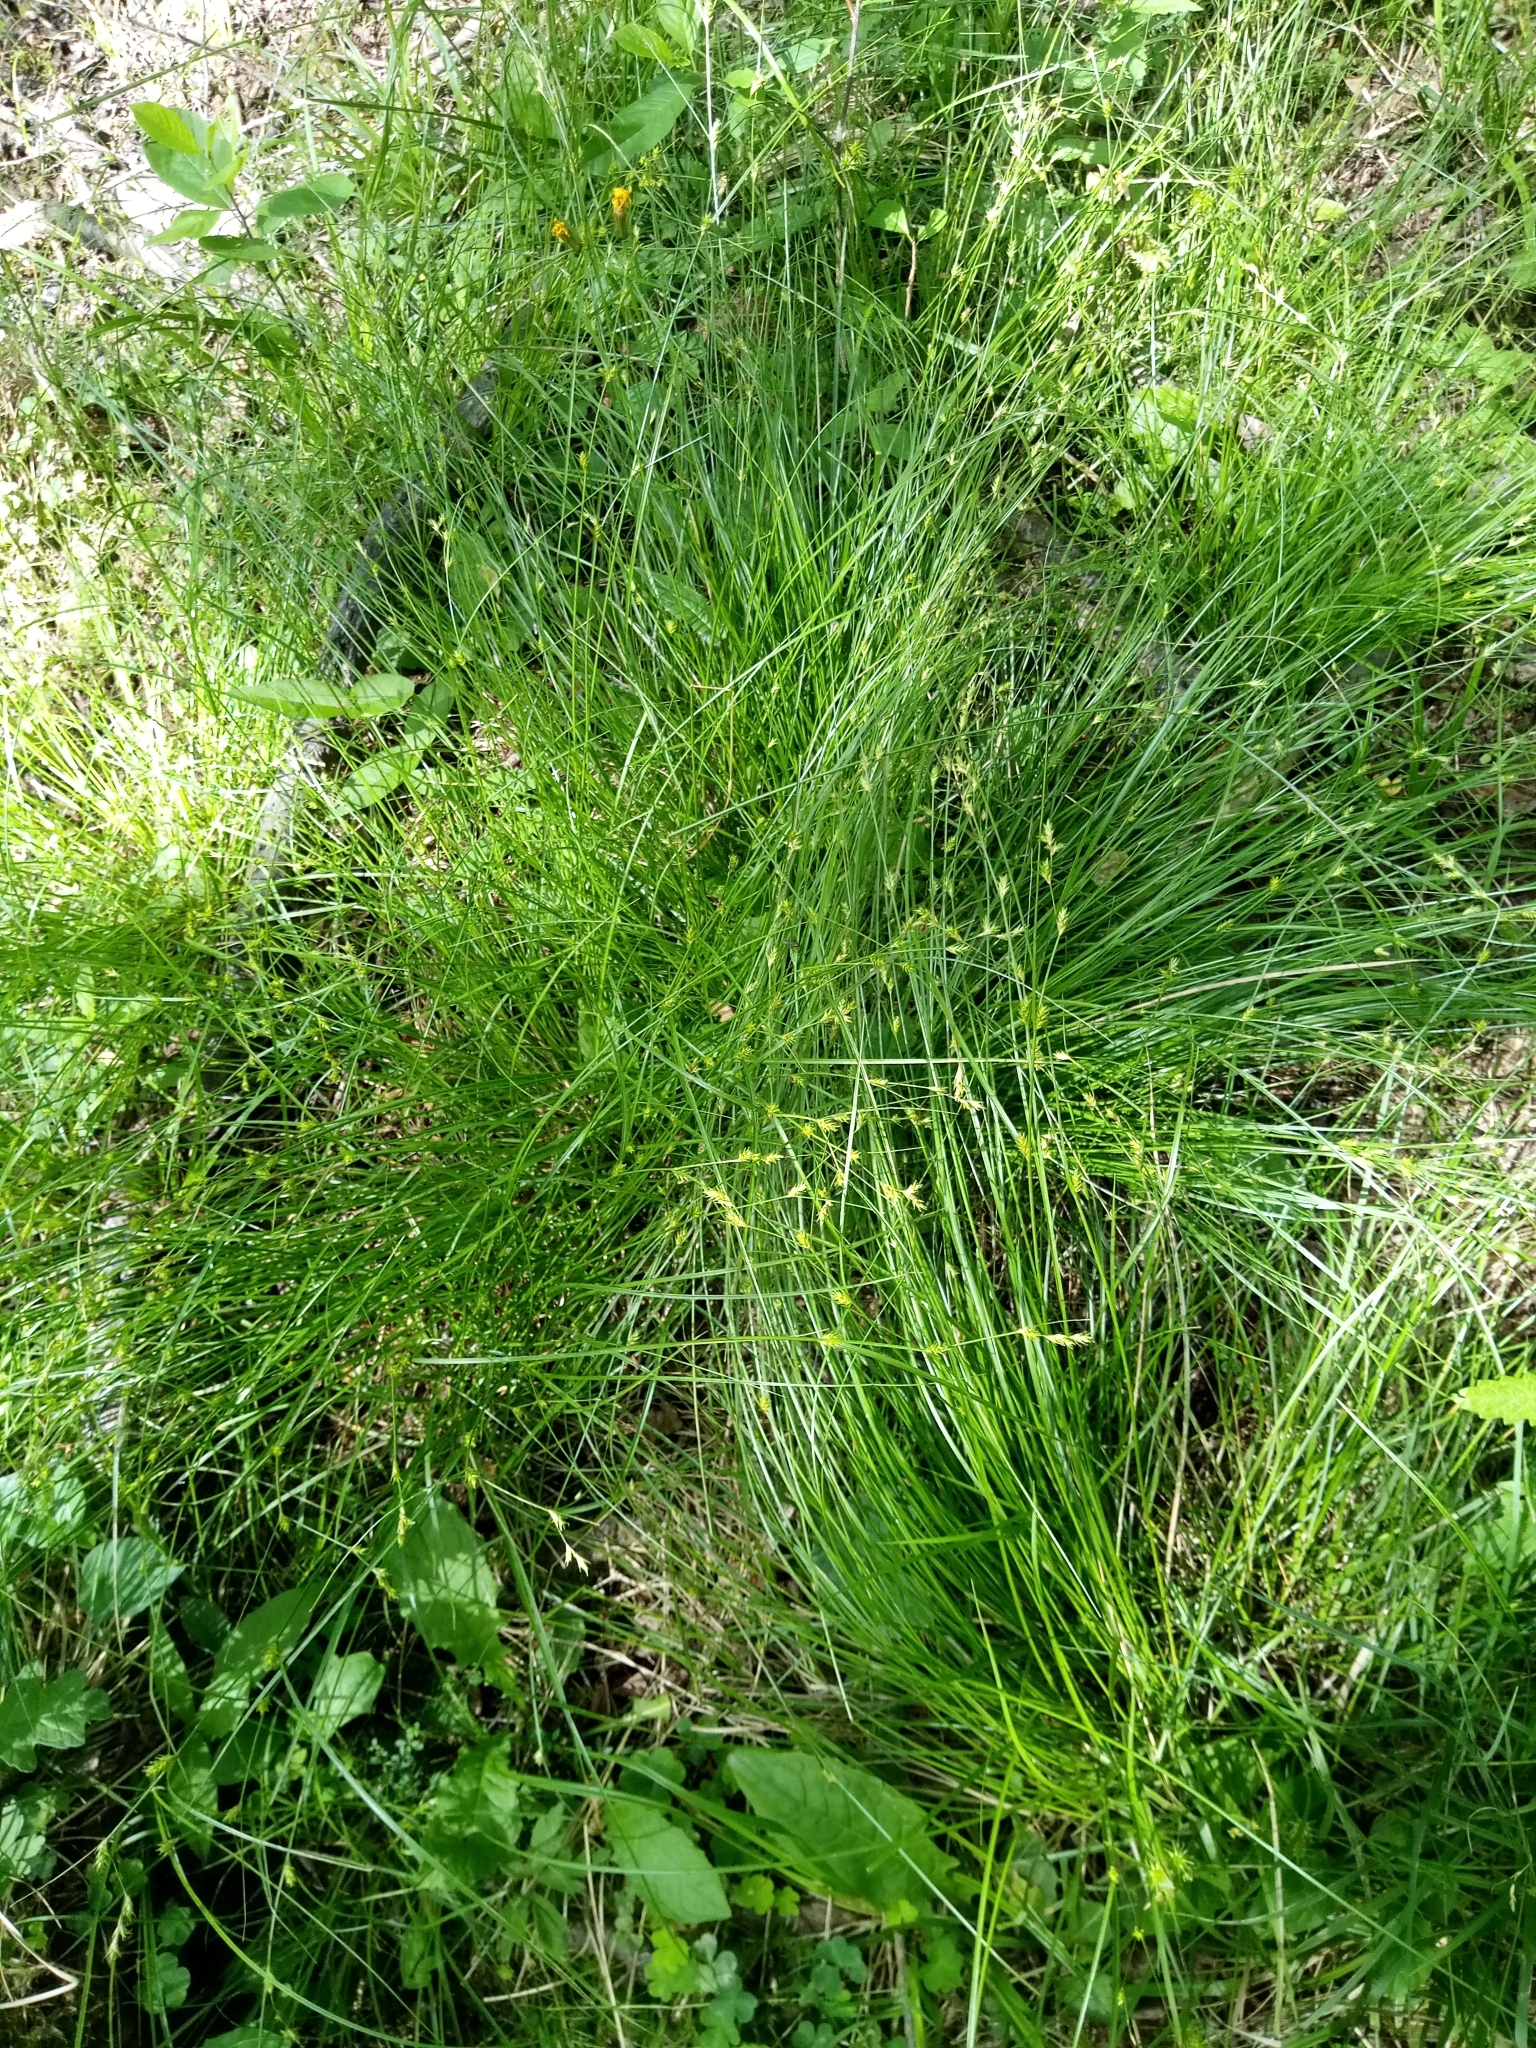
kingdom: Plantae
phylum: Tracheophyta
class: Liliopsida
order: Poales
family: Cyperaceae
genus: Carex
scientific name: Carex remota
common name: Remote sedge
